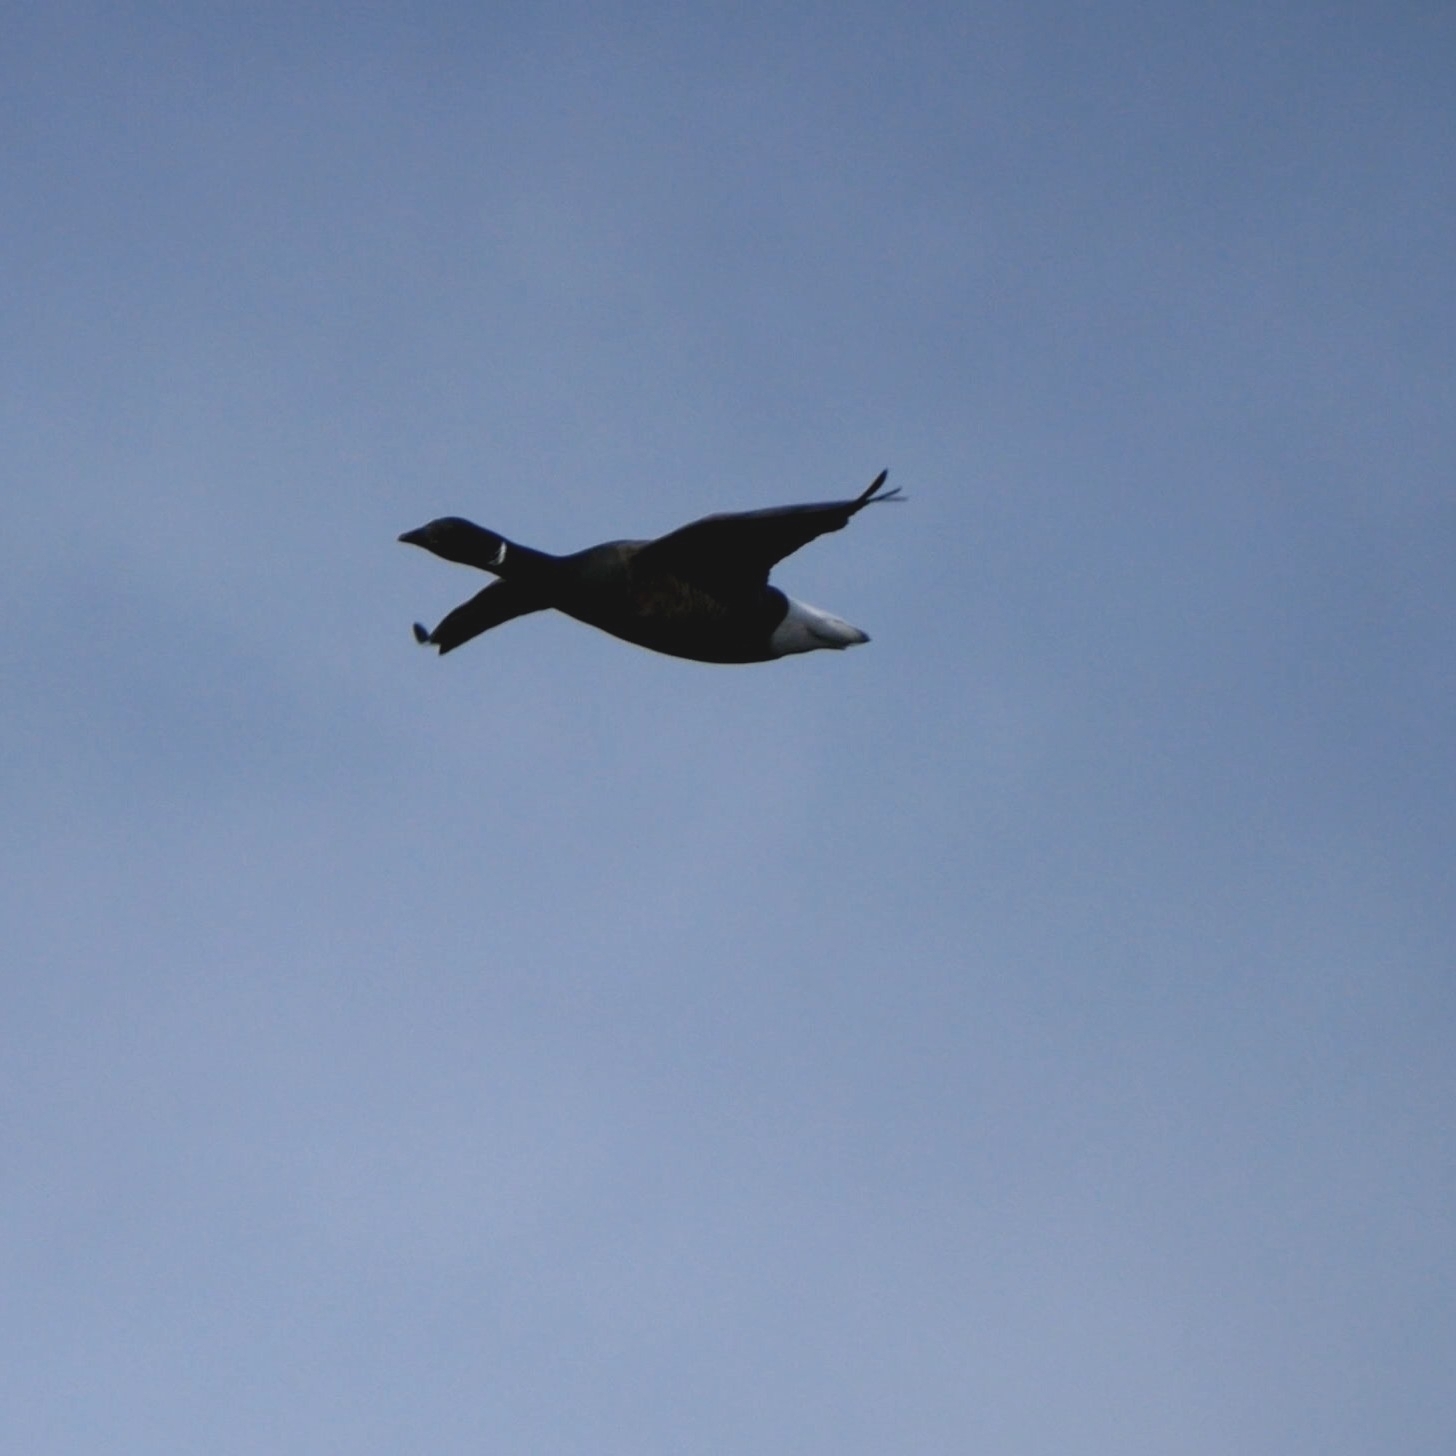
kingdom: Animalia
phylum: Chordata
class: Aves
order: Anseriformes
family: Anatidae
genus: Branta
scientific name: Branta bernicla
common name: Brant goose
